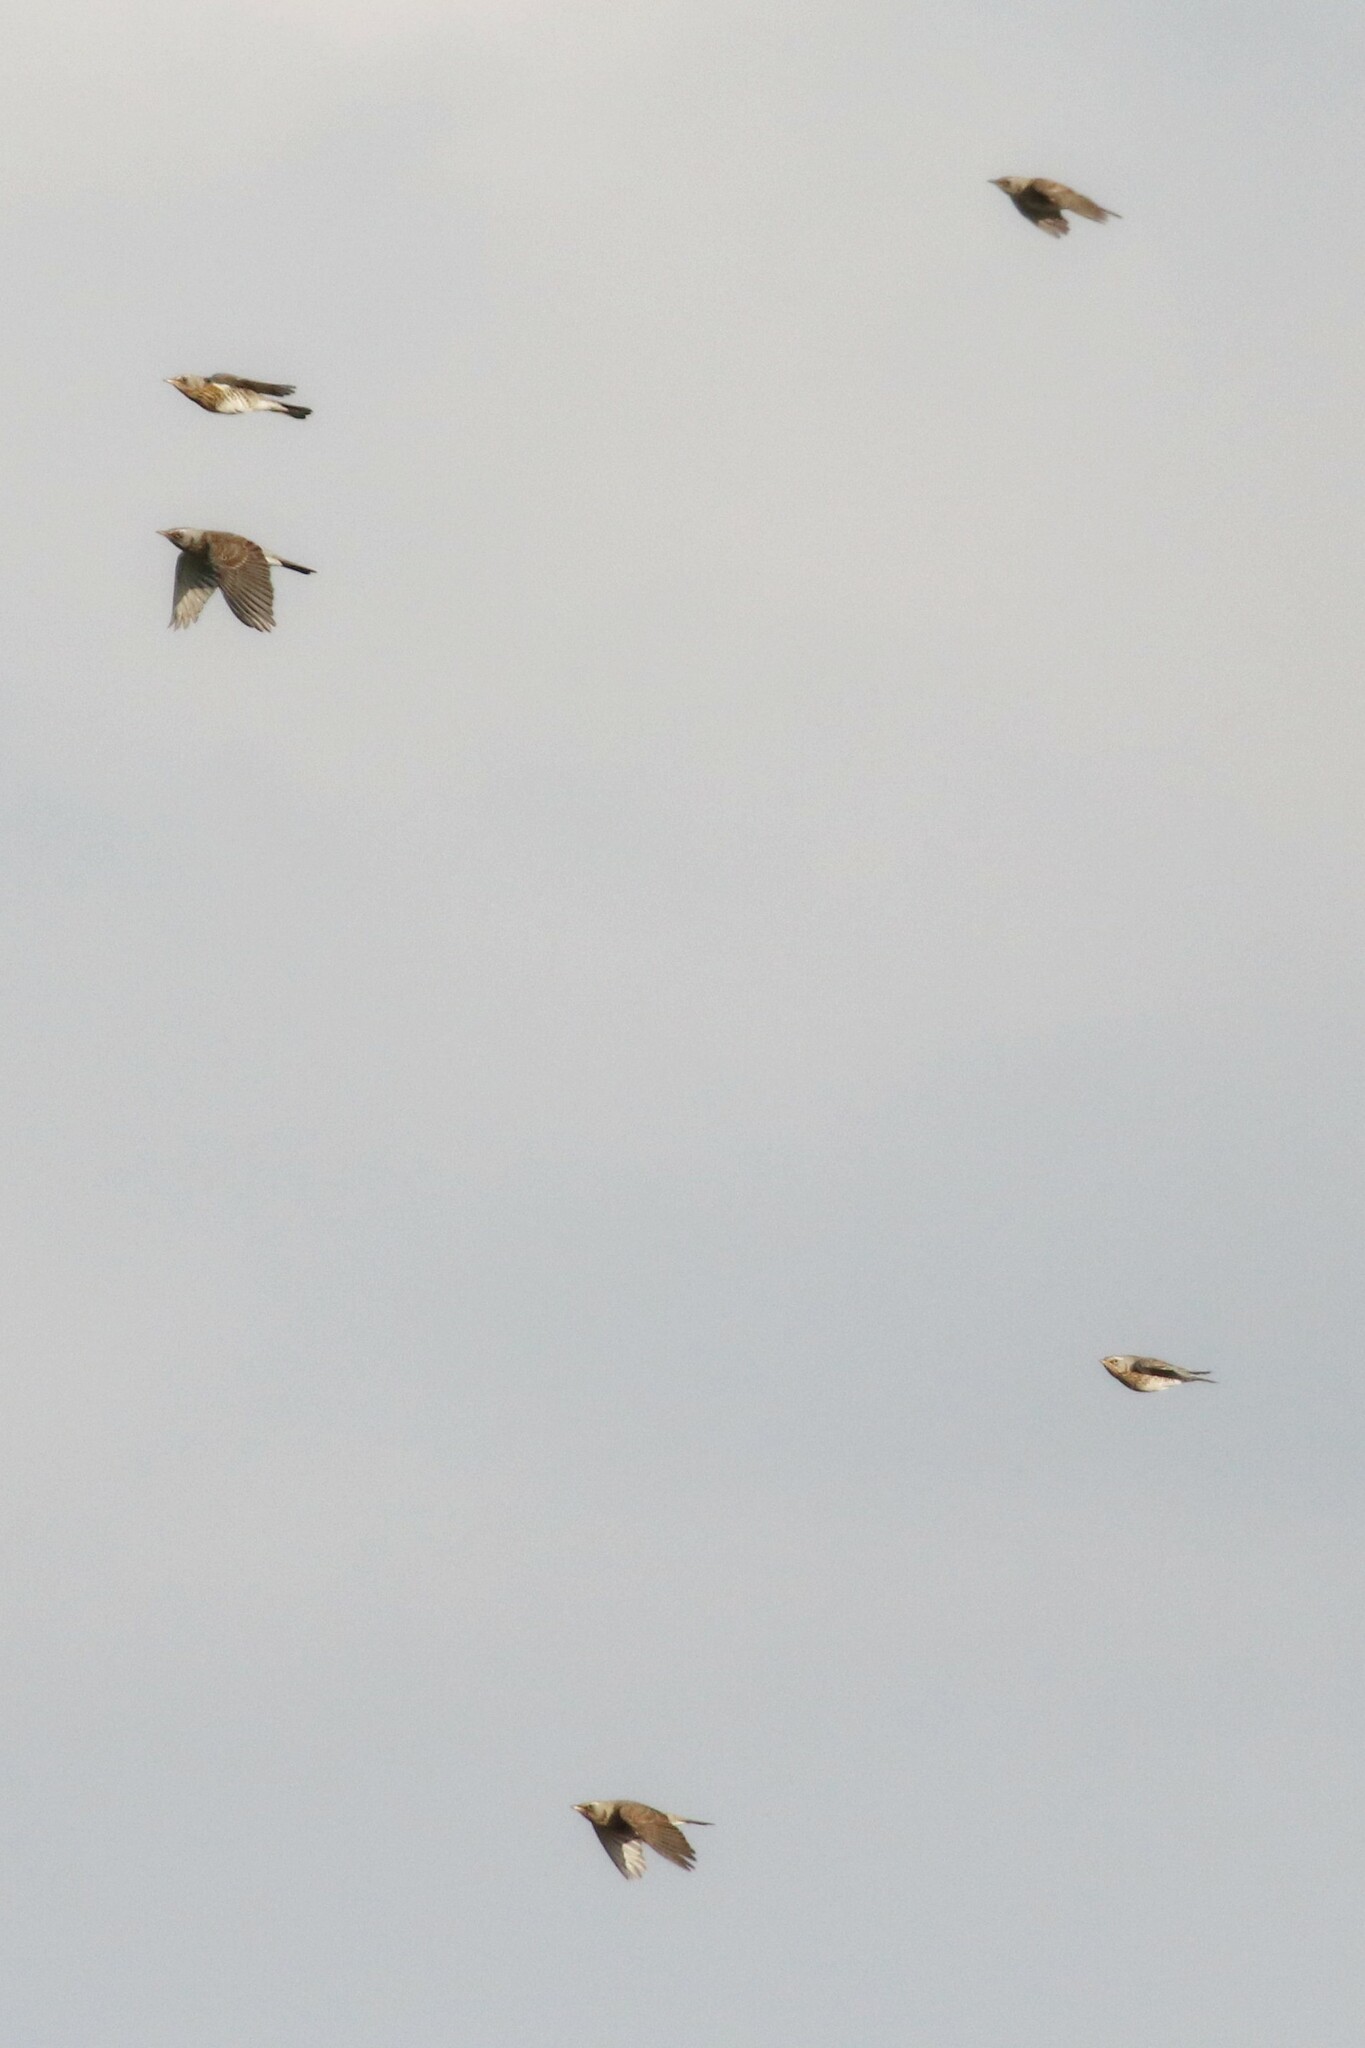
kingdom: Animalia
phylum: Chordata
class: Aves
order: Passeriformes
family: Turdidae
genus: Turdus
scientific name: Turdus pilaris
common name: Fieldfare
